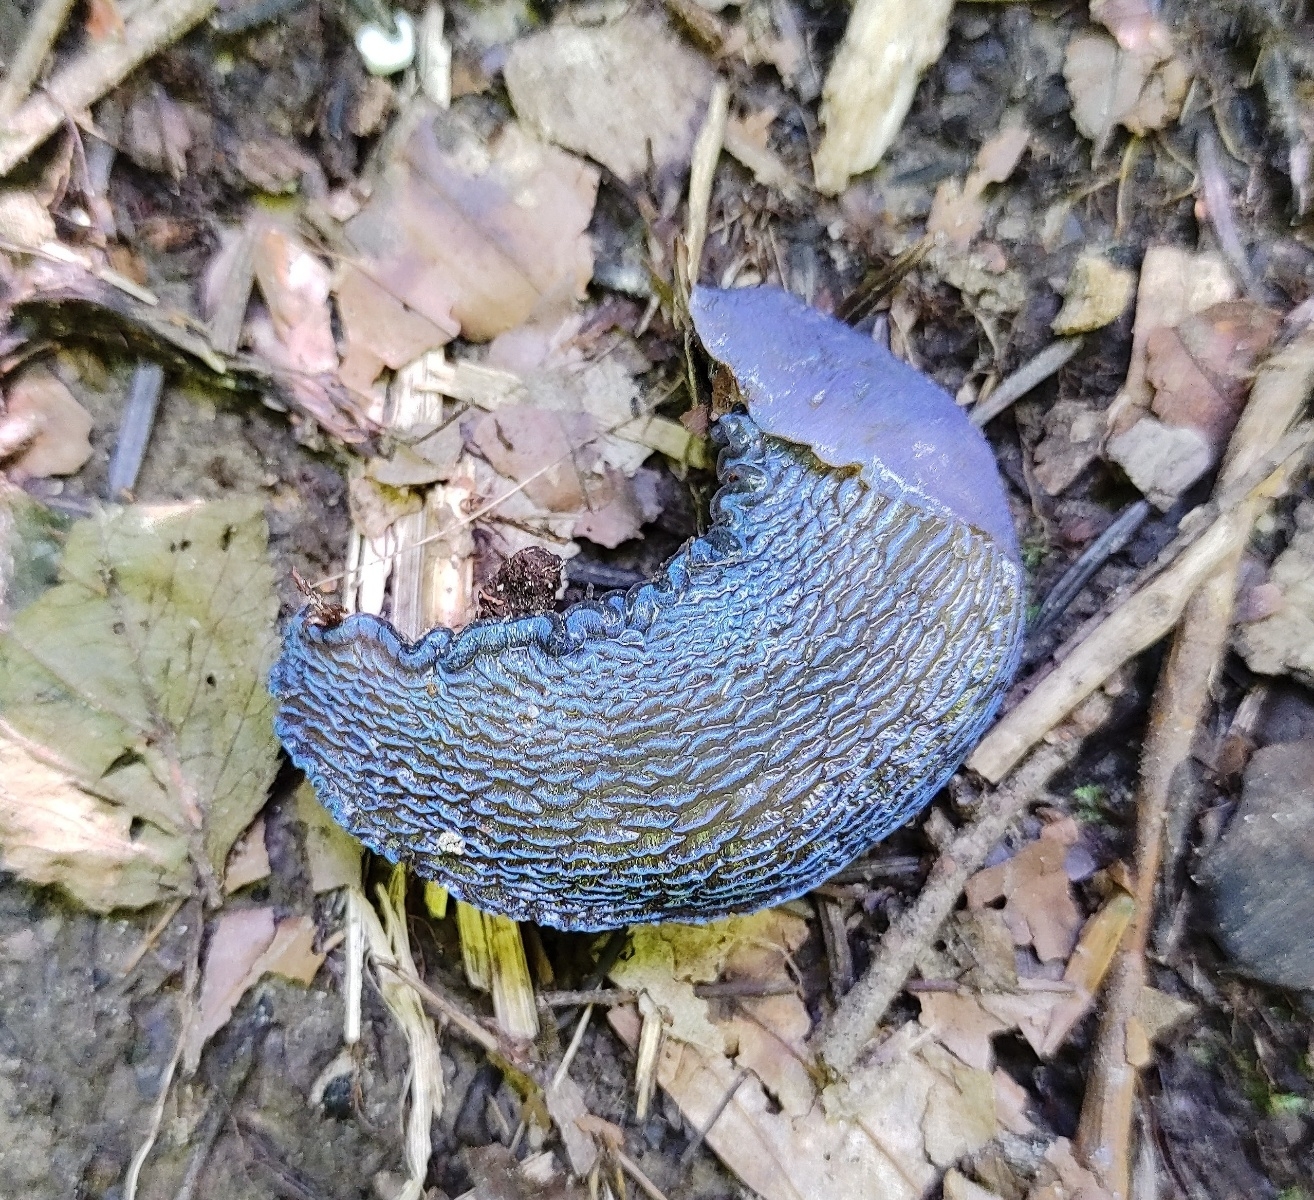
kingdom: Animalia
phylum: Mollusca
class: Gastropoda
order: Stylommatophora
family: Limacidae
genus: Bielzia
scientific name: Bielzia coerulans
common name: Carpathian blue slug
